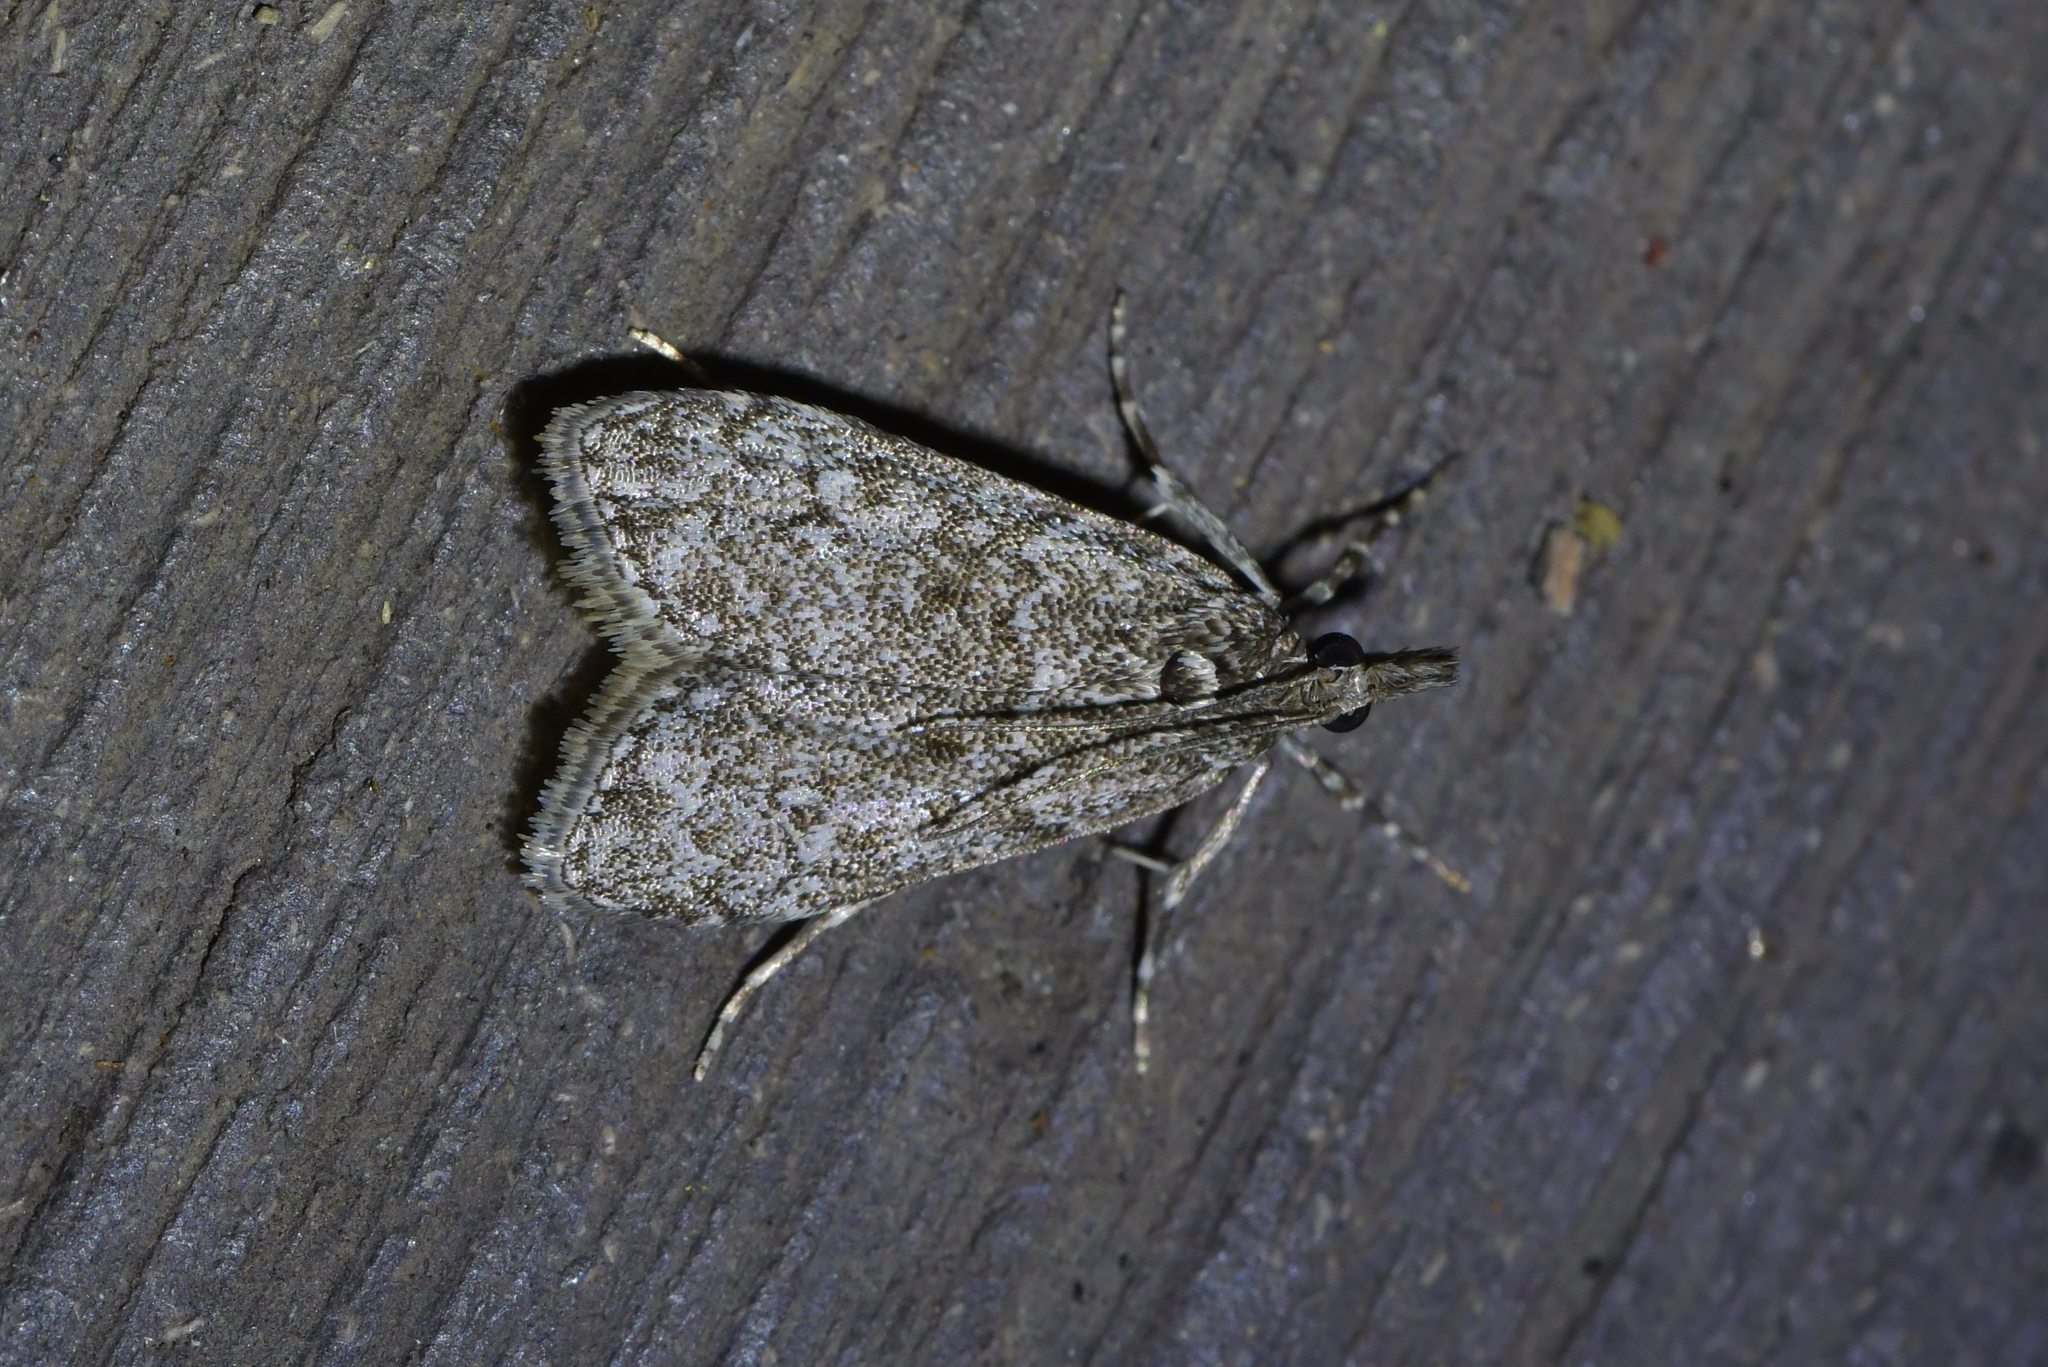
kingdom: Animalia
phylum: Arthropoda
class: Insecta
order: Lepidoptera
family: Crambidae
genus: Eudonia
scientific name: Eudonia
